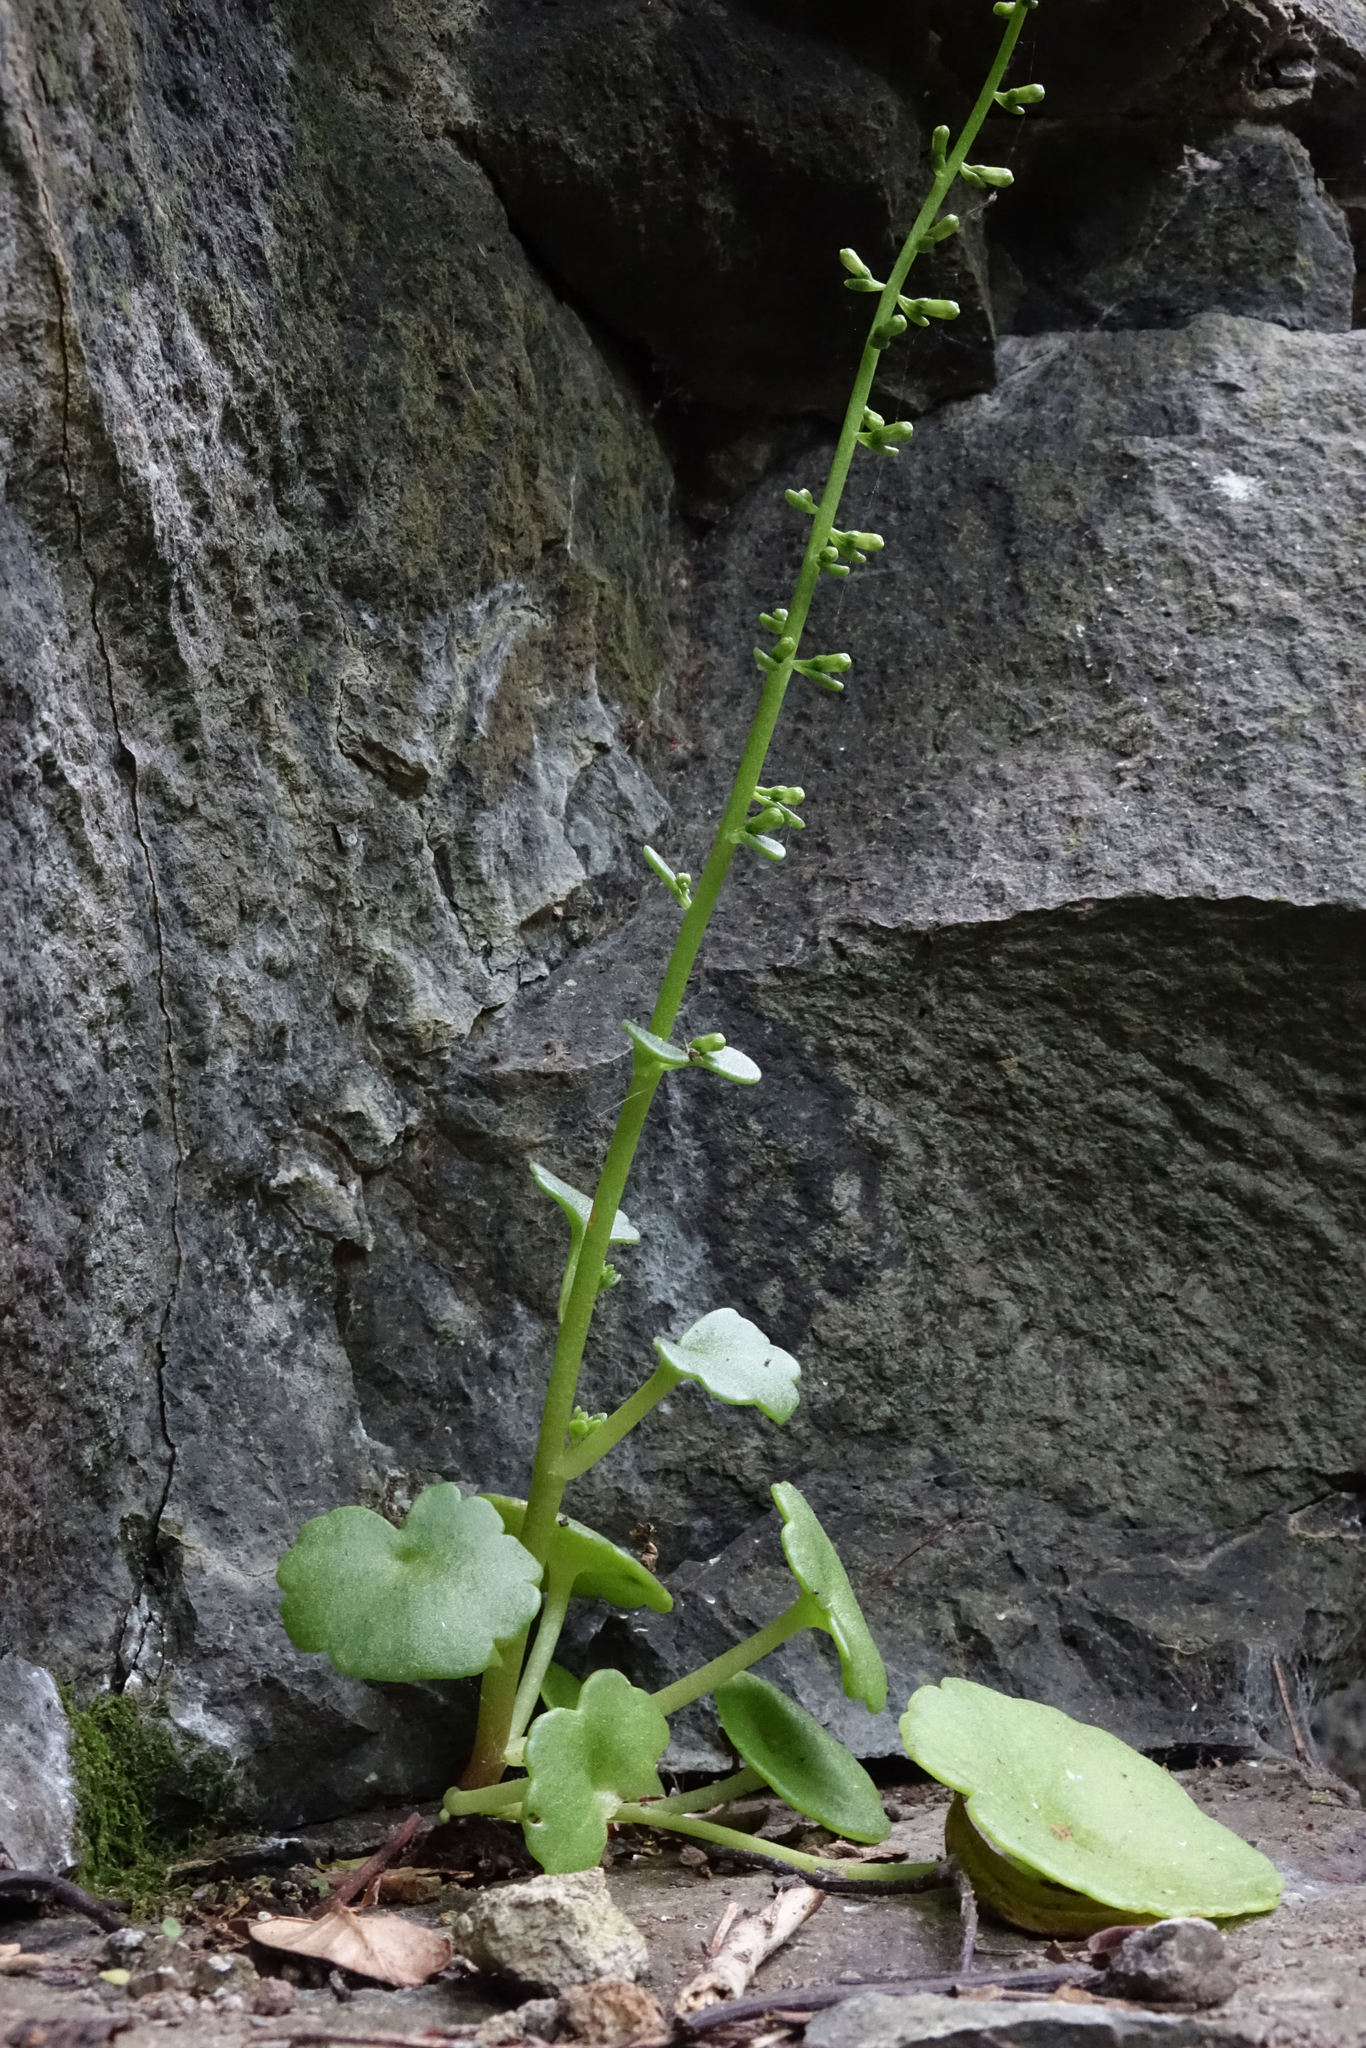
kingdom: Plantae
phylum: Tracheophyta
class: Magnoliopsida
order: Saxifragales
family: Crassulaceae
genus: Umbilicus
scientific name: Umbilicus rupestris
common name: Navelwort
